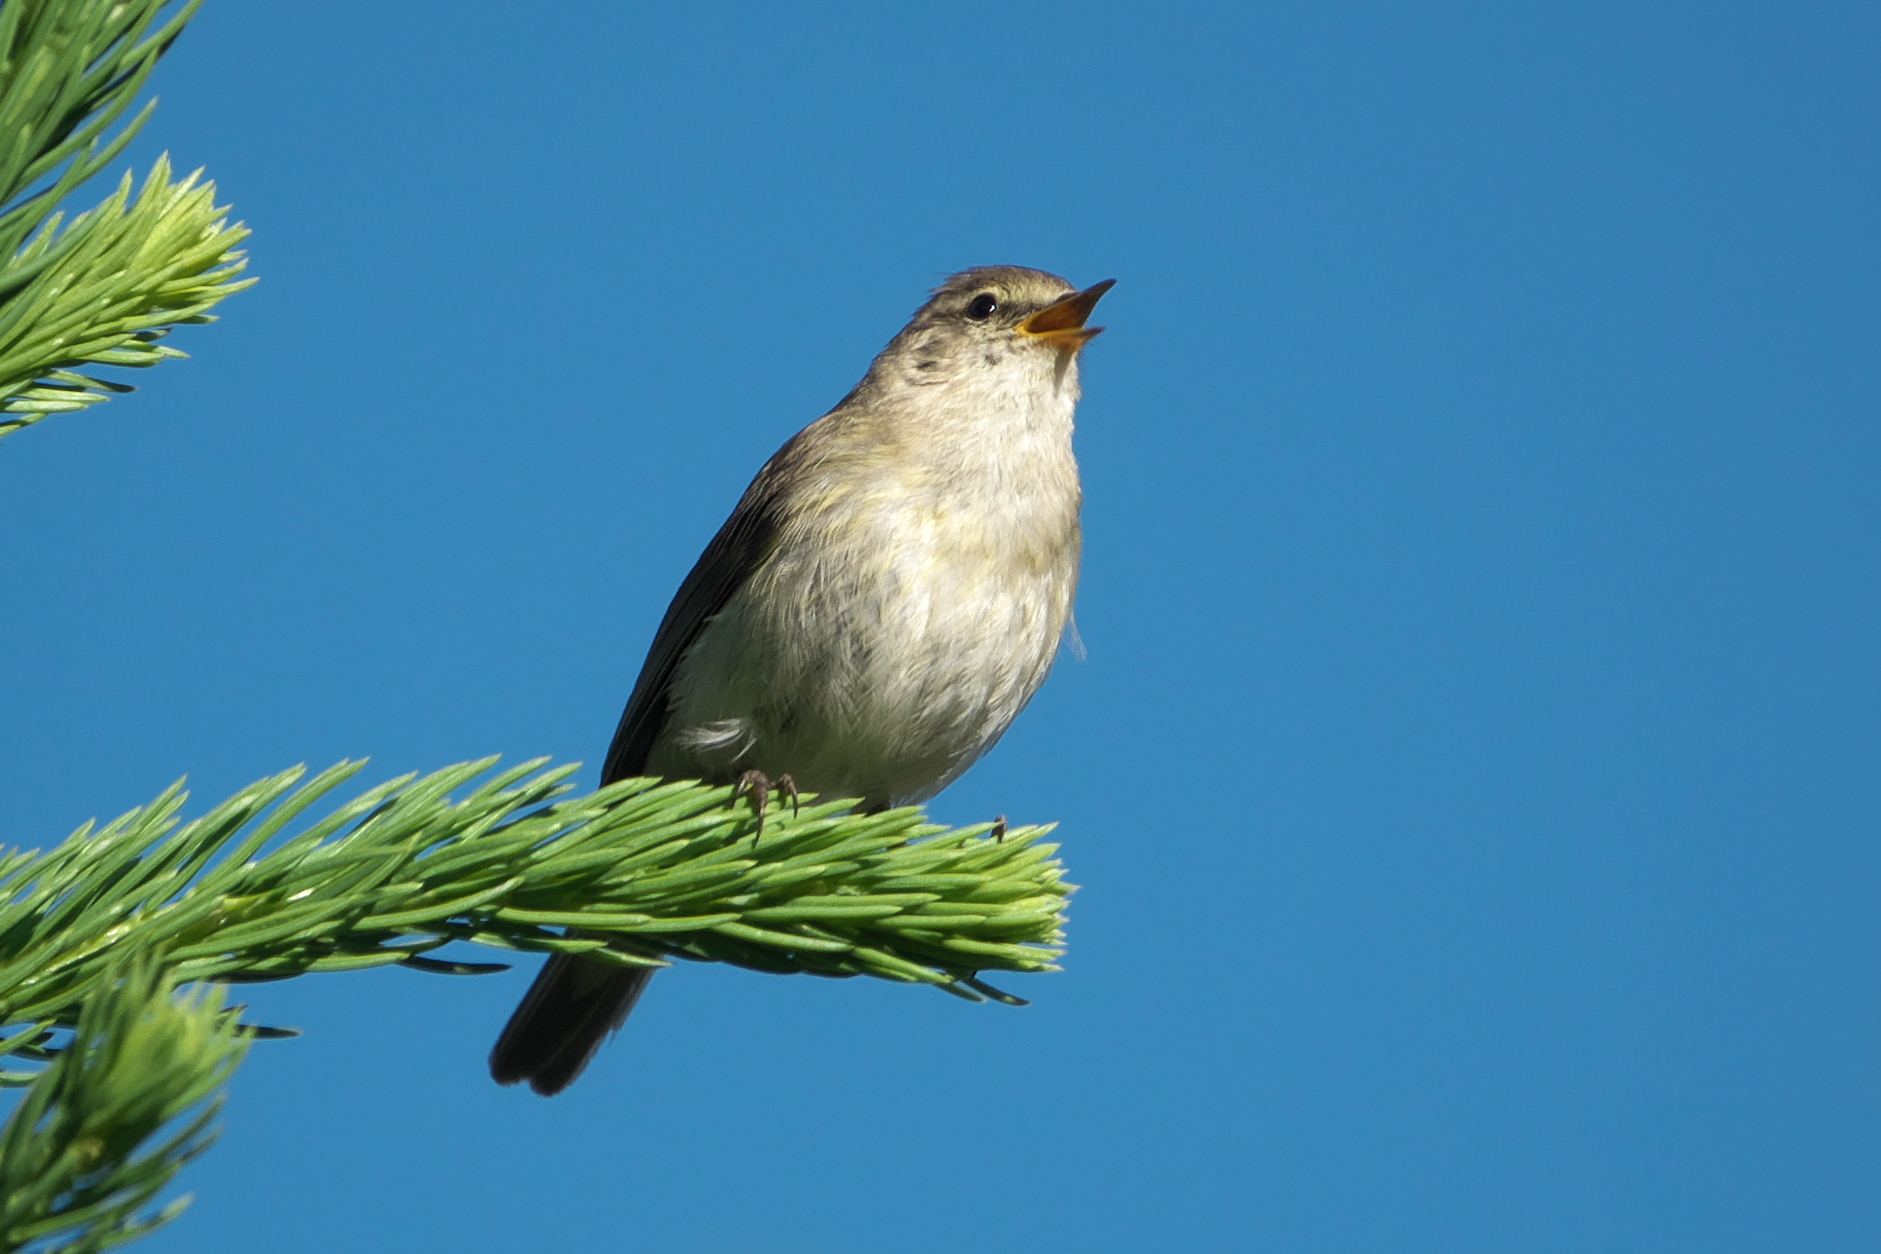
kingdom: Animalia
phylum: Chordata
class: Aves
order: Passeriformes
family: Phylloscopidae
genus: Phylloscopus
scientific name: Phylloscopus collybita
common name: Common chiffchaff
